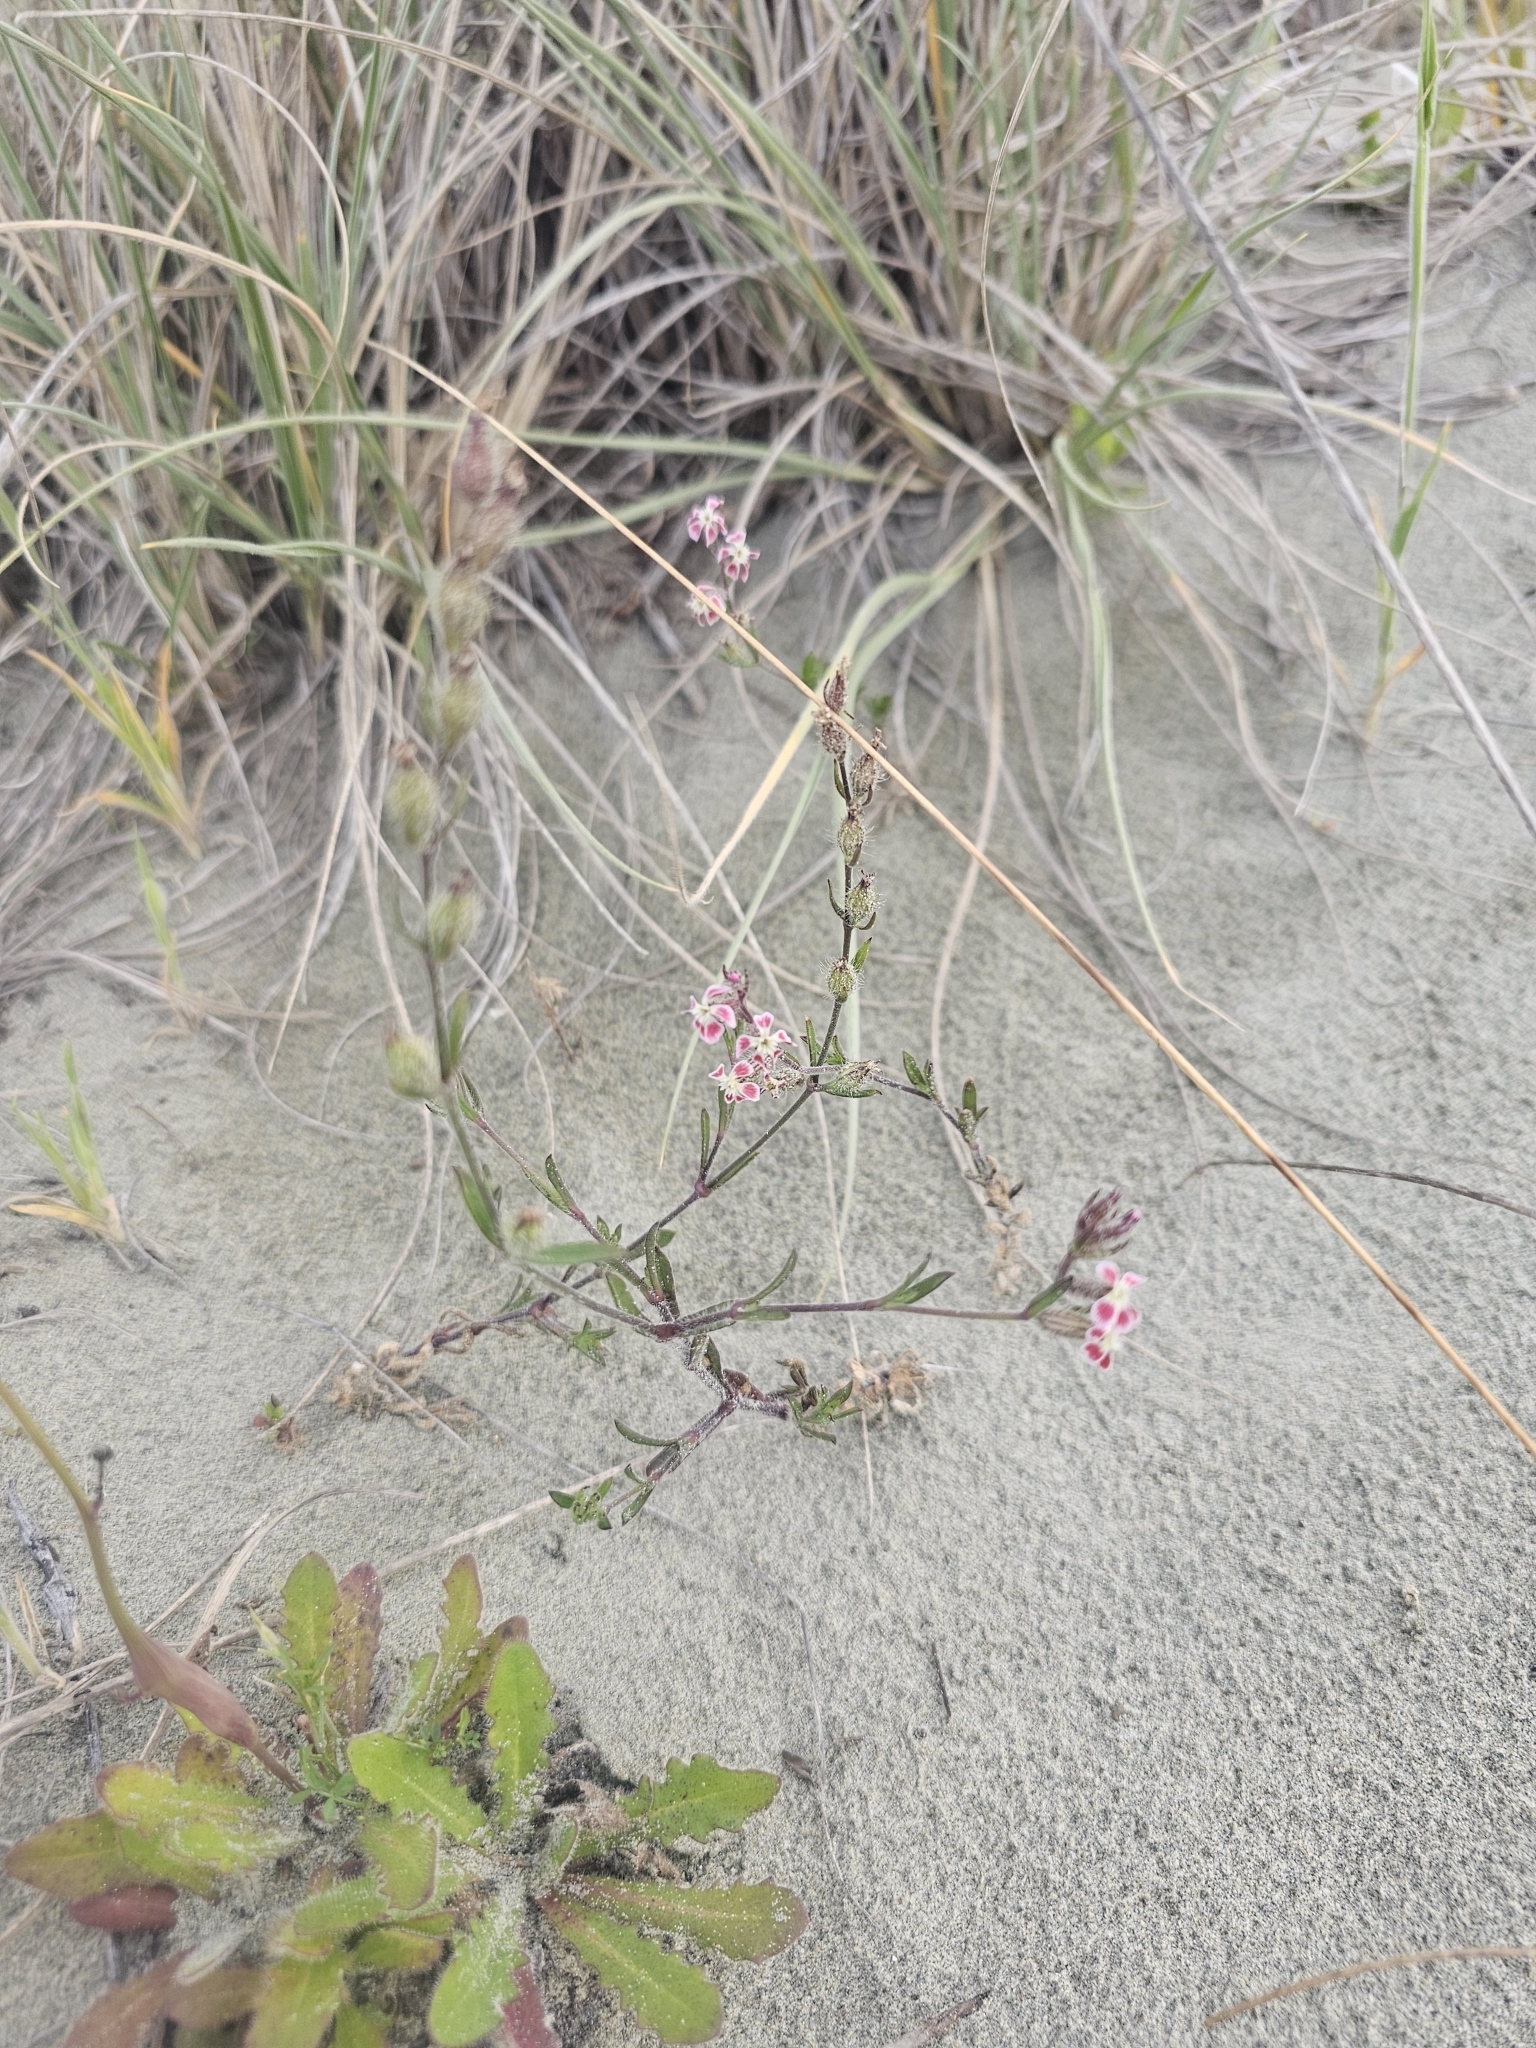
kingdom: Plantae
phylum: Tracheophyta
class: Magnoliopsida
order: Caryophyllales
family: Caryophyllaceae
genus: Silene
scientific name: Silene gallica
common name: Small-flowered catchfly
